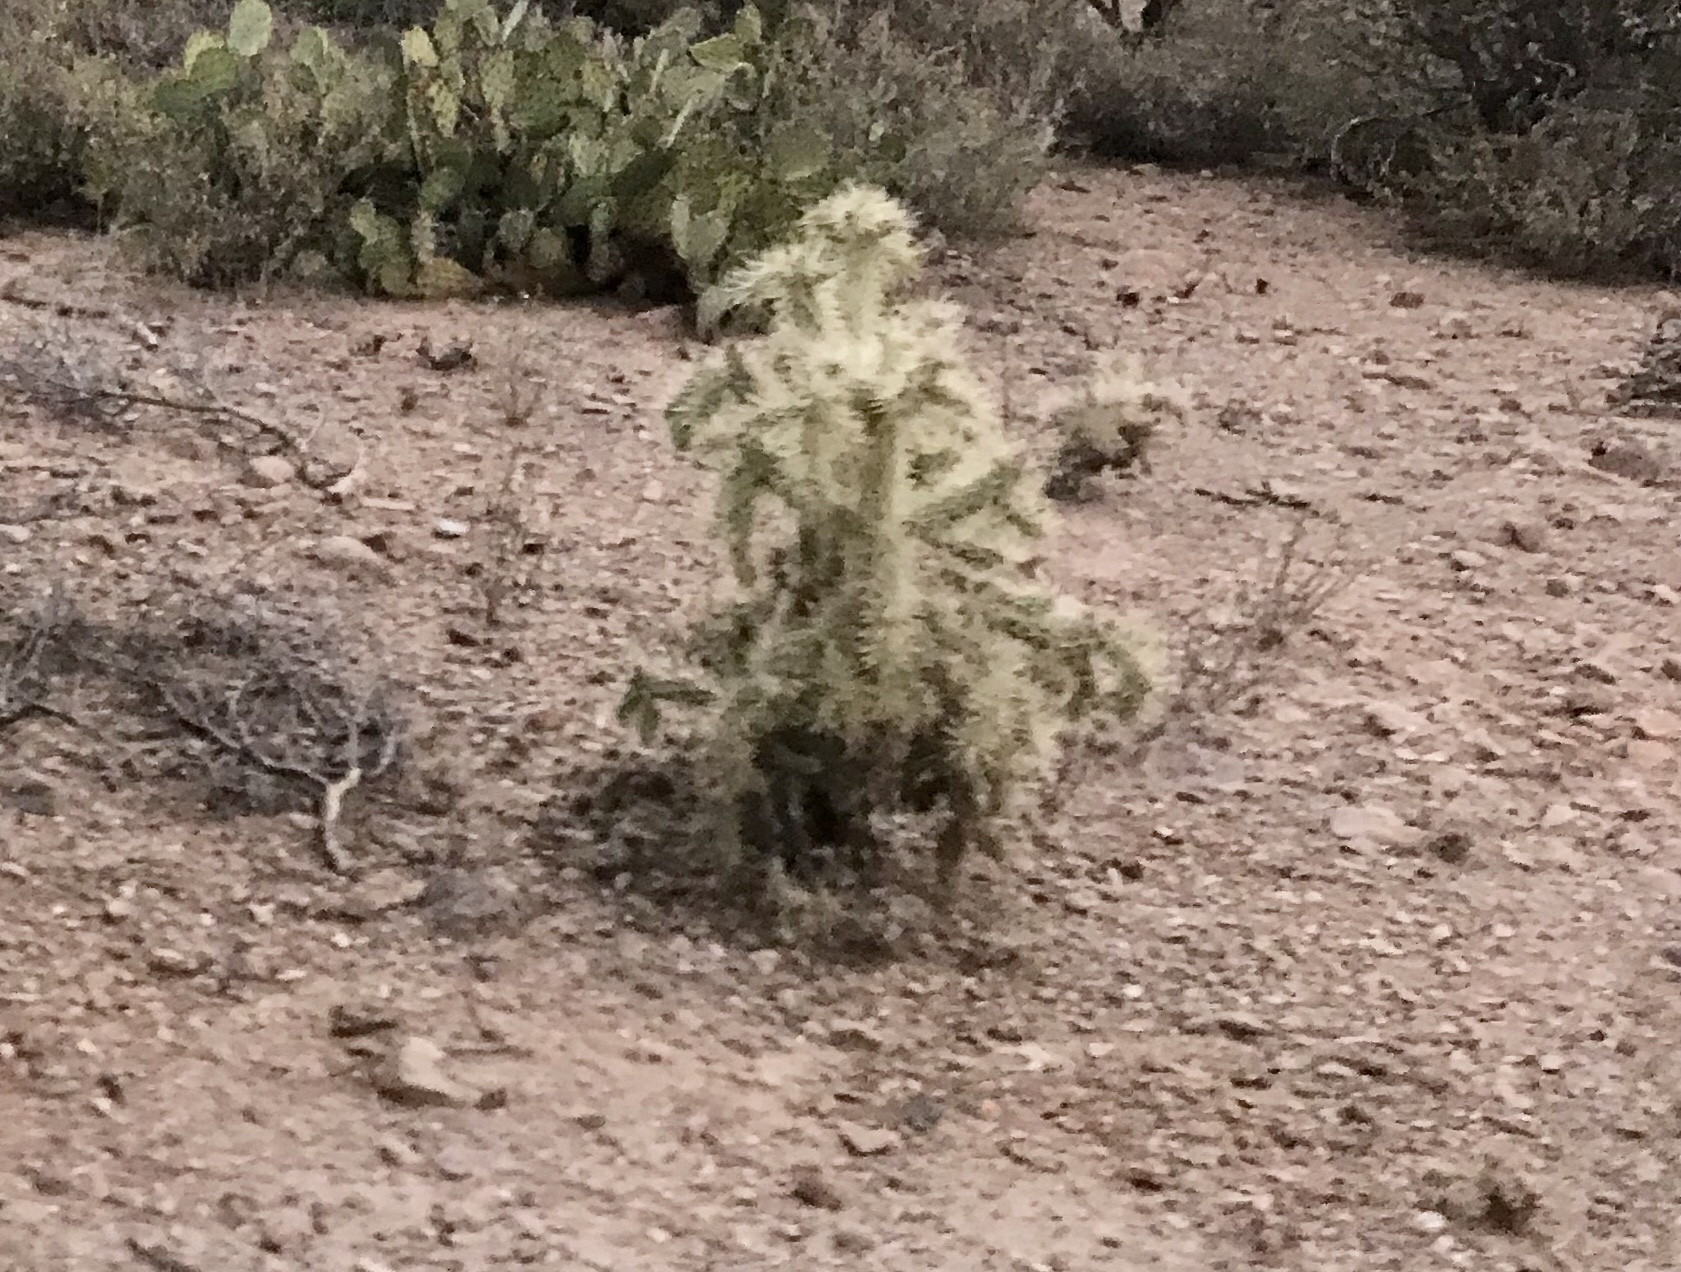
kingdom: Plantae
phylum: Tracheophyta
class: Magnoliopsida
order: Caryophyllales
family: Cactaceae
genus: Cylindropuntia
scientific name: Cylindropuntia fulgida
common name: Jumping cholla
